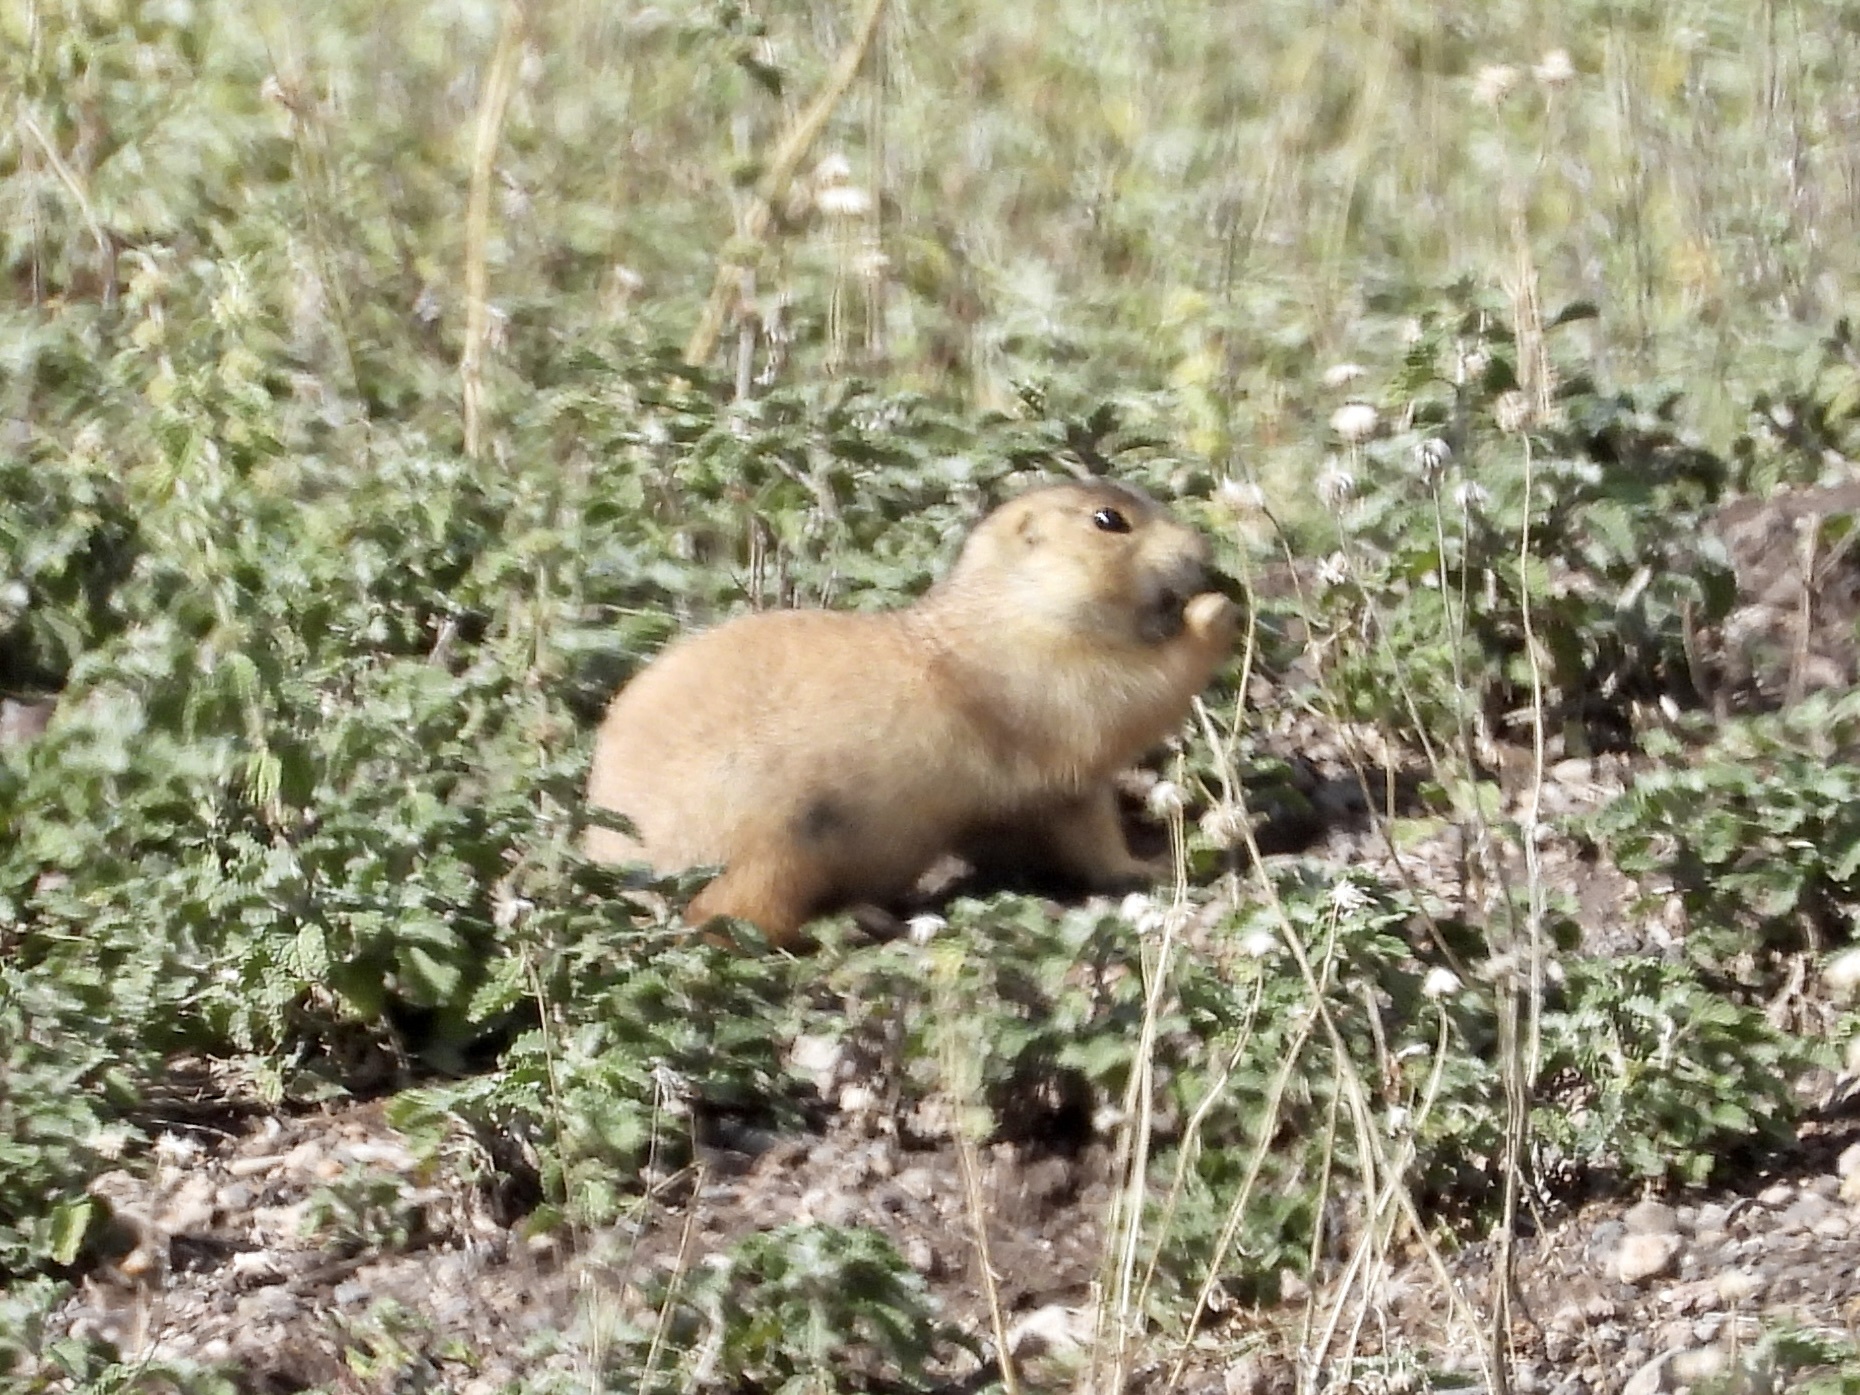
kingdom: Animalia
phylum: Chordata
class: Mammalia
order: Rodentia
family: Sciuridae
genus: Cynomys
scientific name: Cynomys gunnisoni
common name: Gunnison's prairie dog
